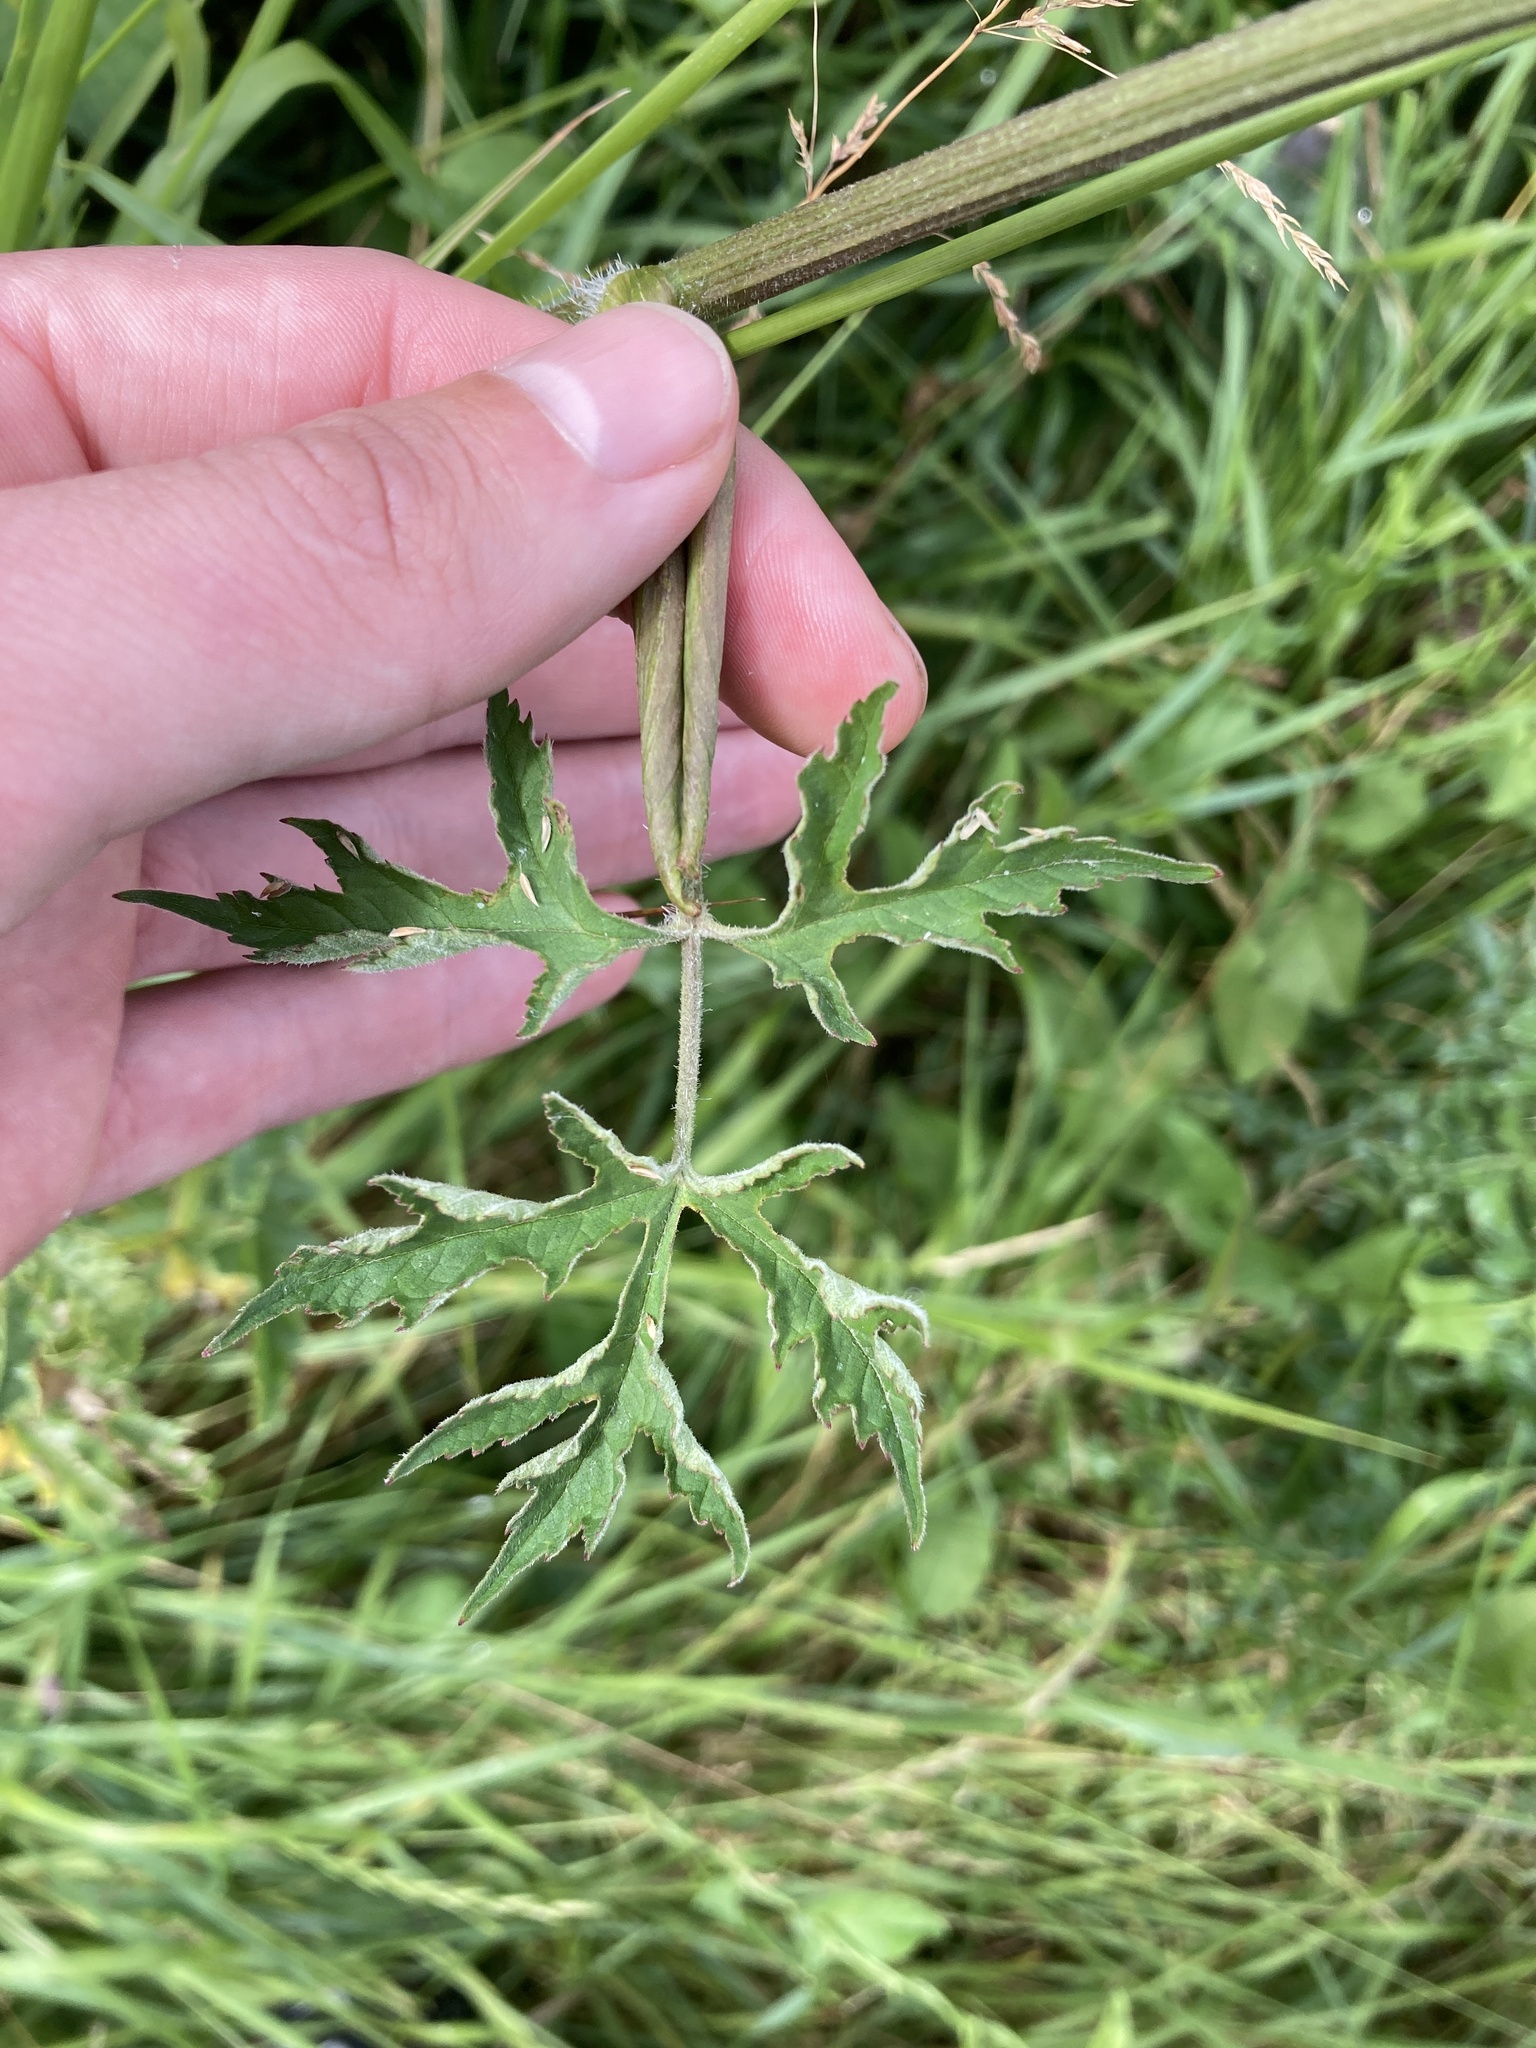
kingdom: Plantae
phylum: Tracheophyta
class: Magnoliopsida
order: Apiales
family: Apiaceae
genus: Heracleum
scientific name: Heracleum sphondylium
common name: Hogweed
